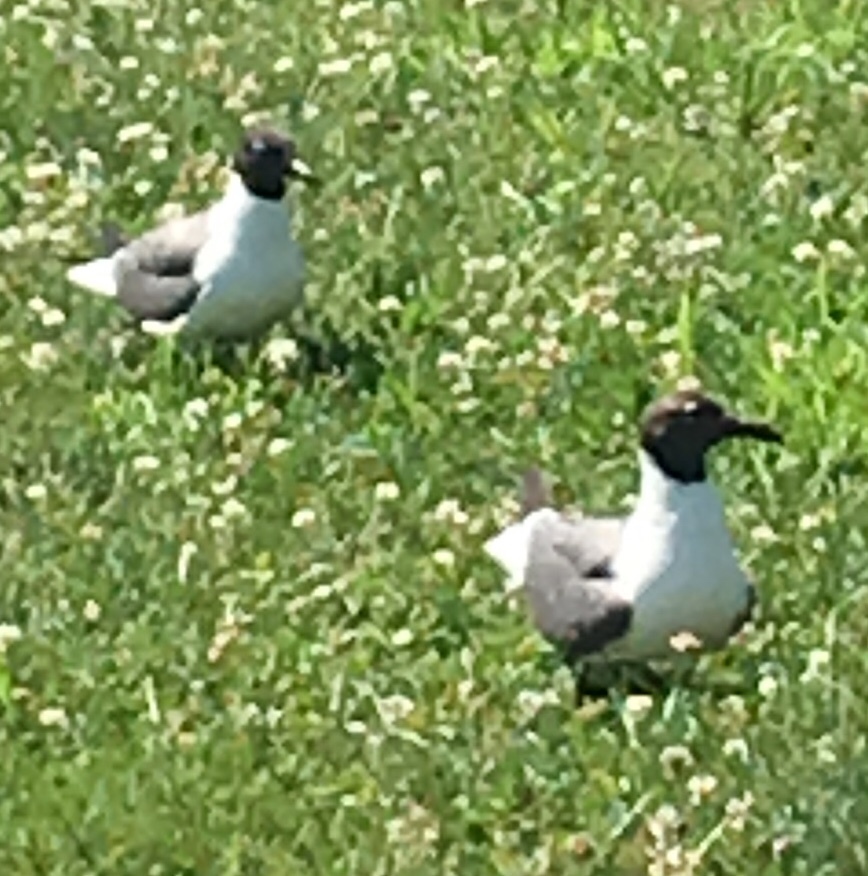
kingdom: Animalia
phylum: Chordata
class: Aves
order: Charadriiformes
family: Laridae
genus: Leucophaeus
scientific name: Leucophaeus atricilla
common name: Laughing gull
